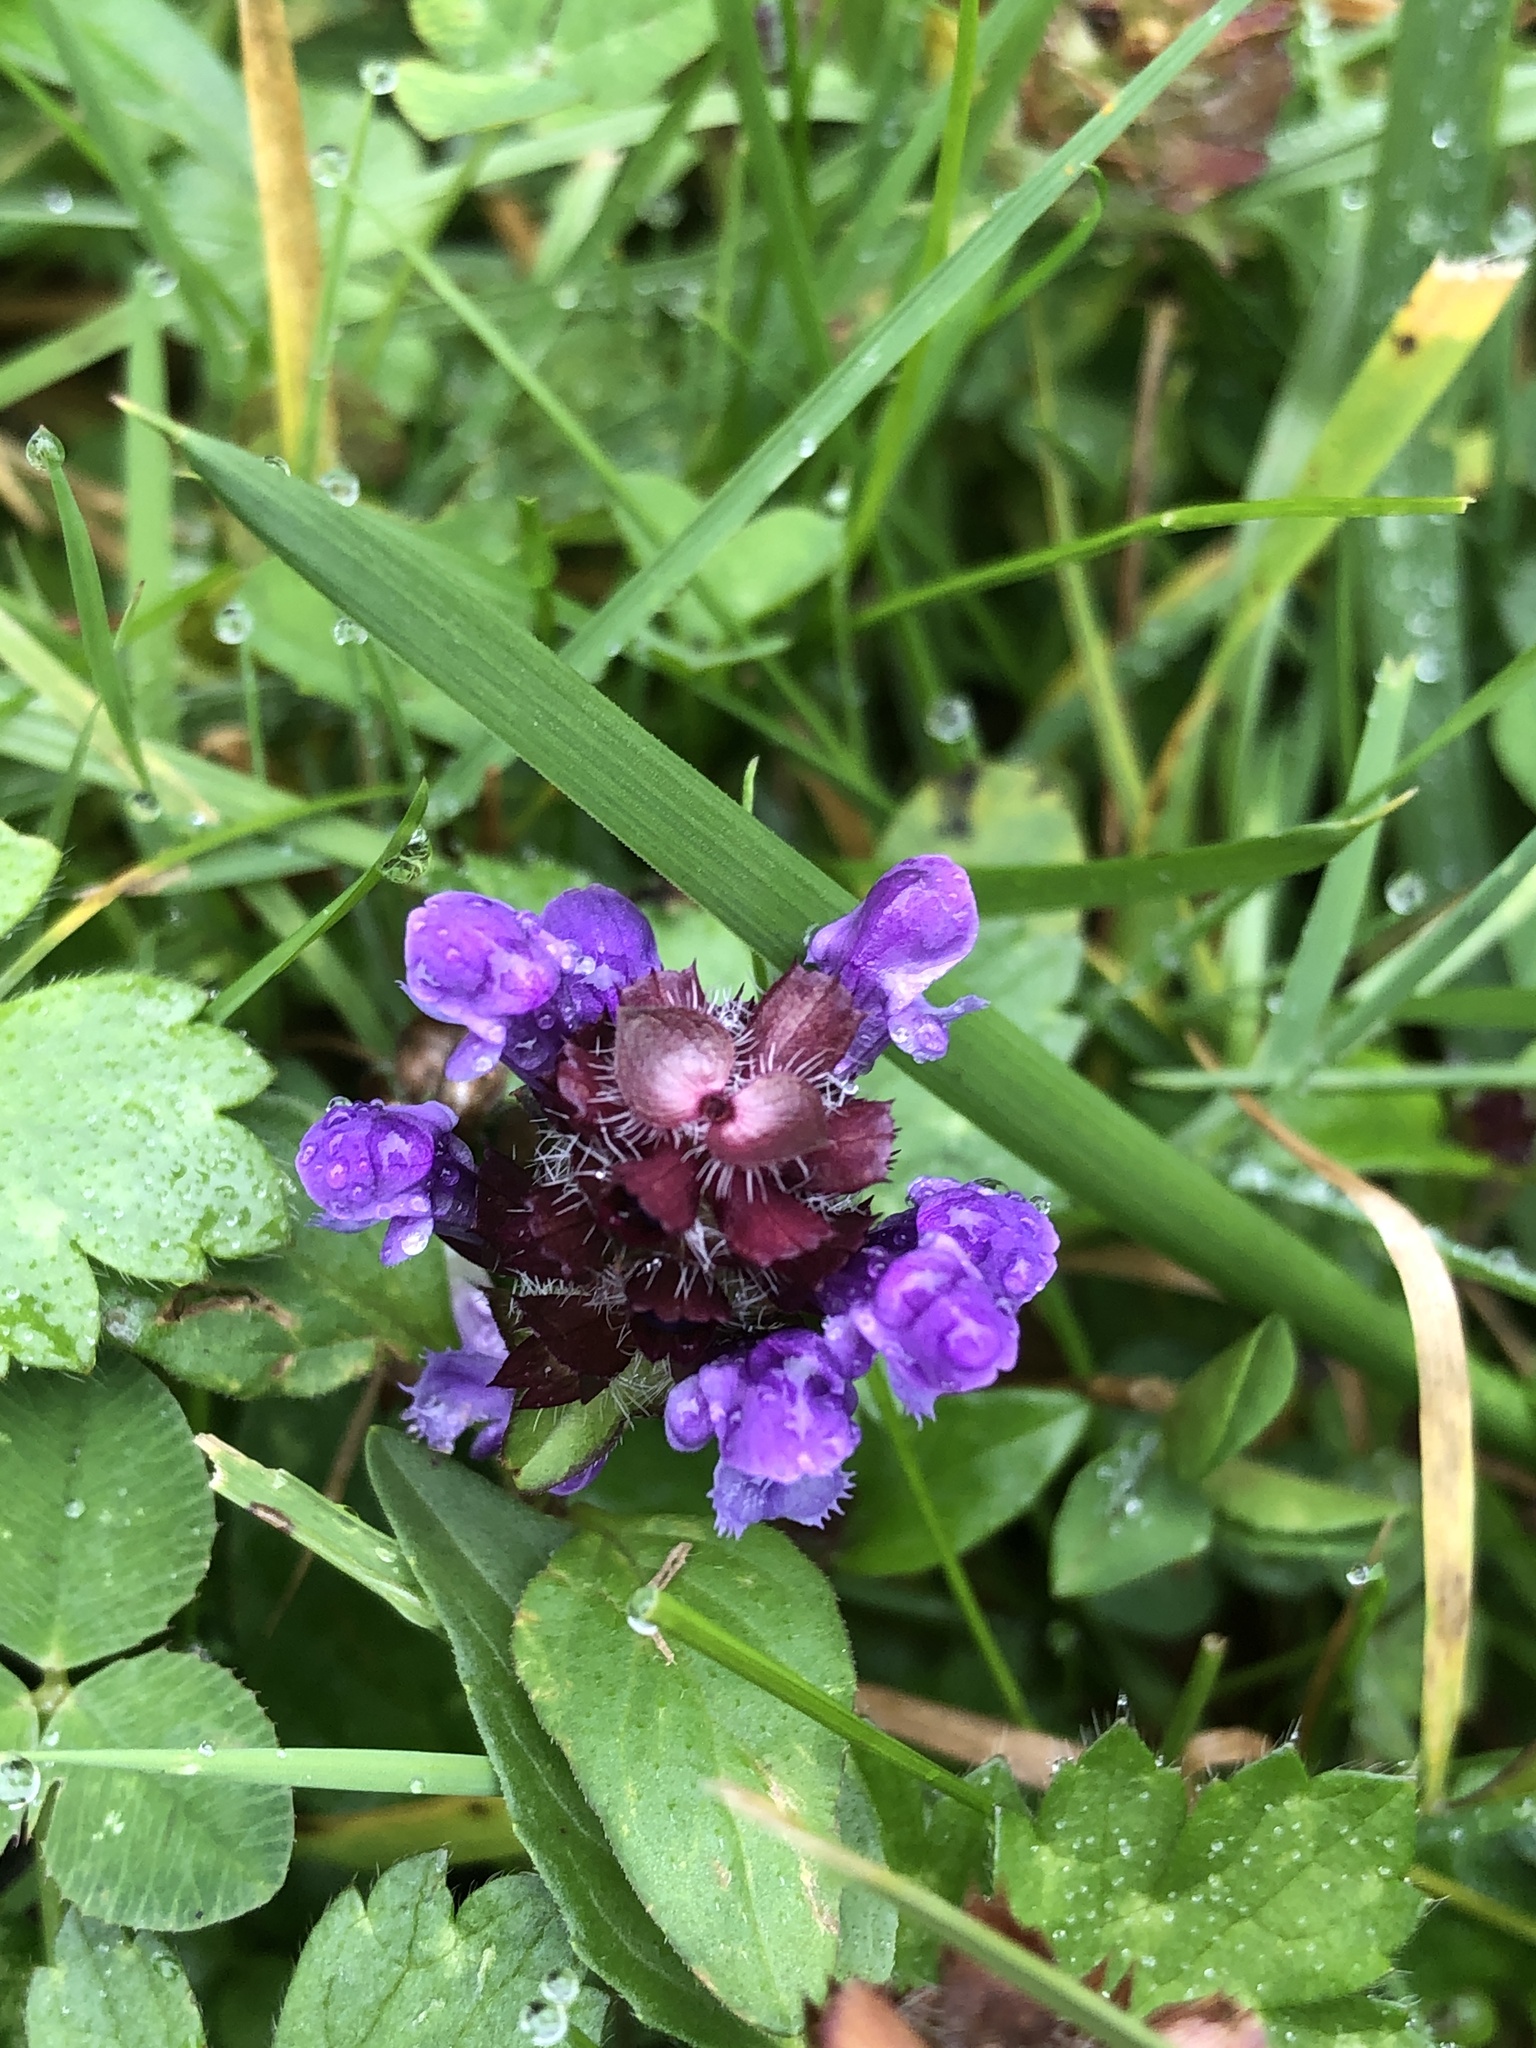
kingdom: Plantae
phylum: Tracheophyta
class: Magnoliopsida
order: Lamiales
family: Lamiaceae
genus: Prunella
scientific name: Prunella vulgaris
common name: Heal-all
